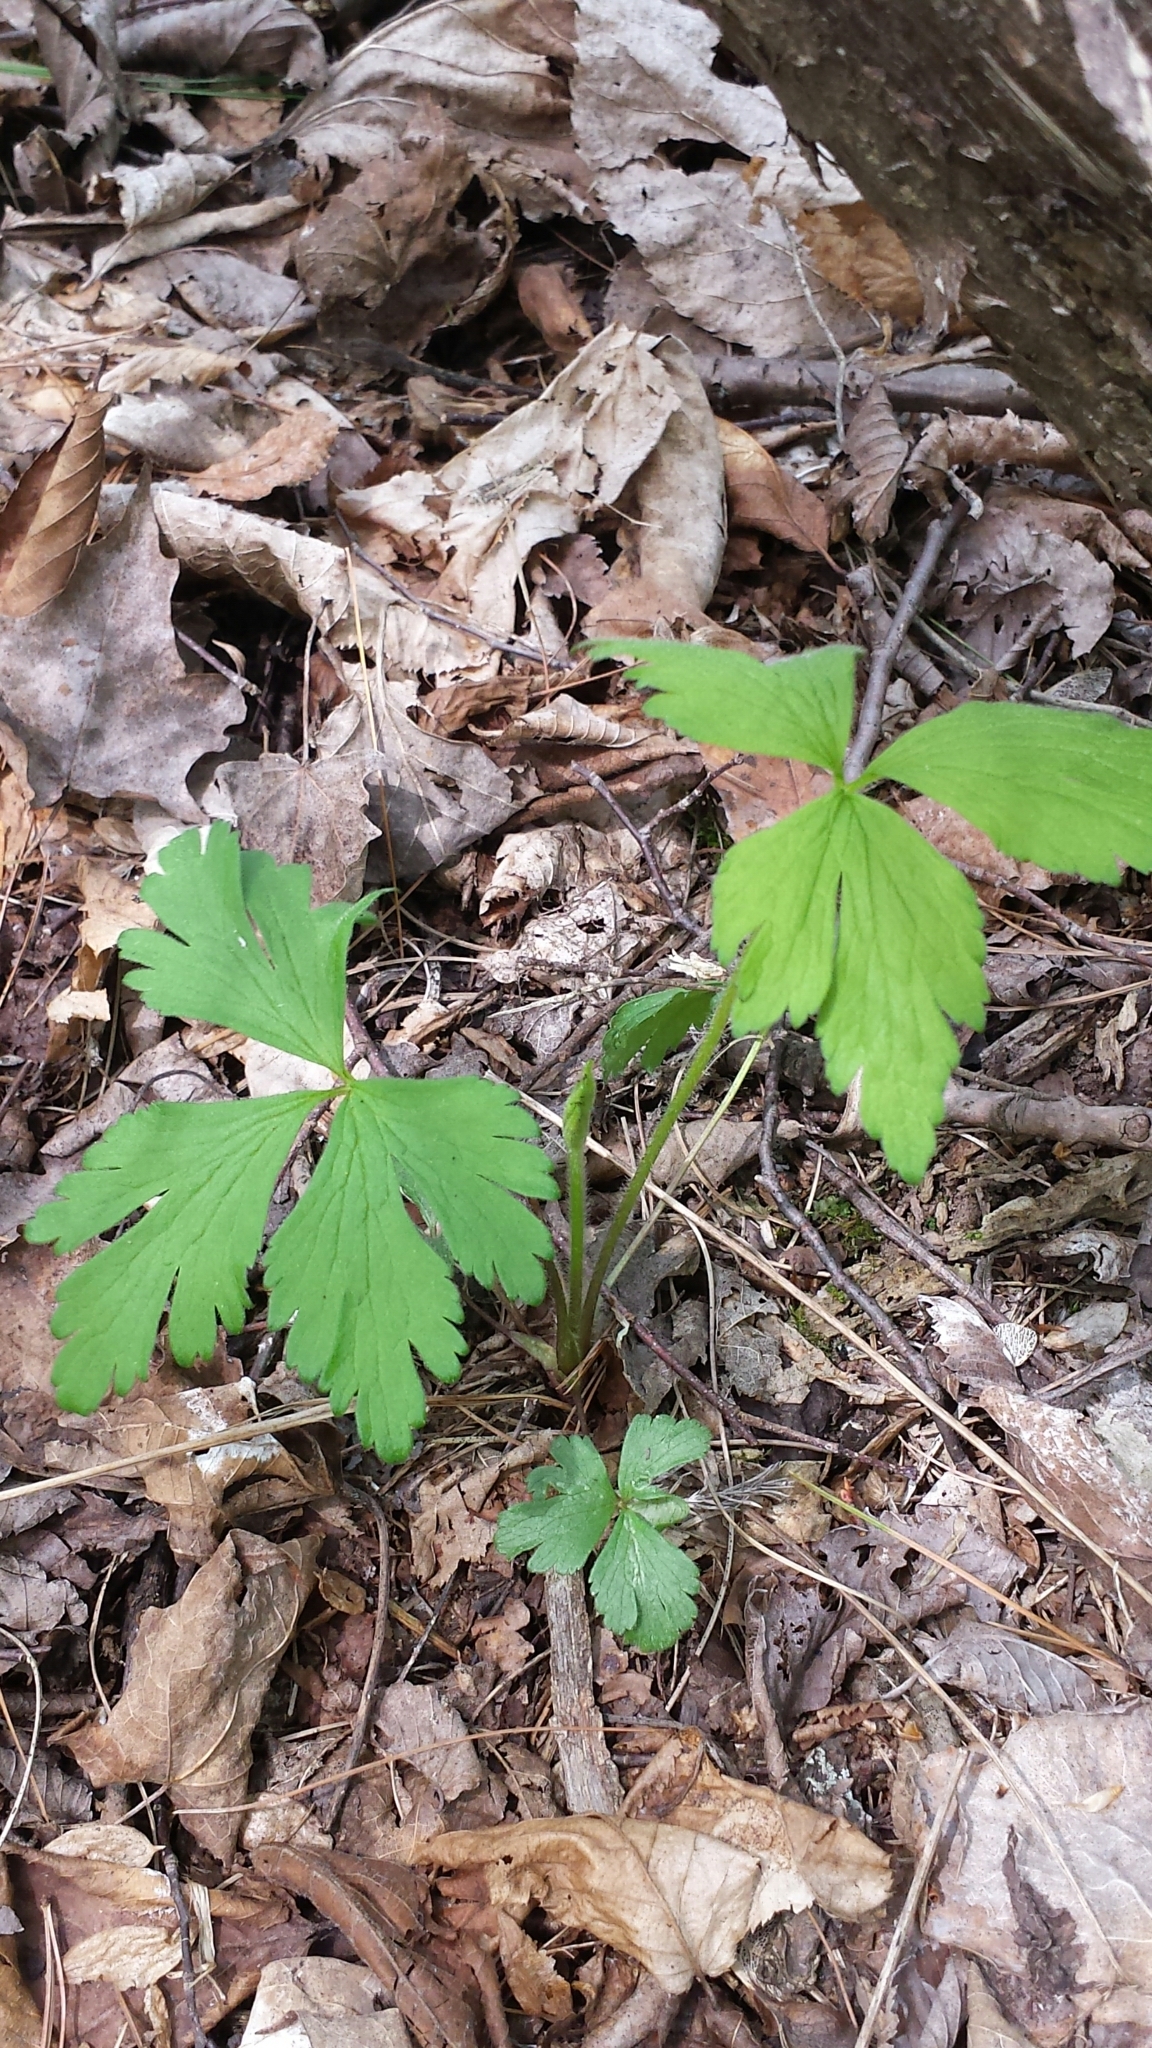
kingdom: Plantae
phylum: Tracheophyta
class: Magnoliopsida
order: Ranunculales
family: Ranunculaceae
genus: Ranunculus
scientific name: Ranunculus hispidus
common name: Bristly buttercup
